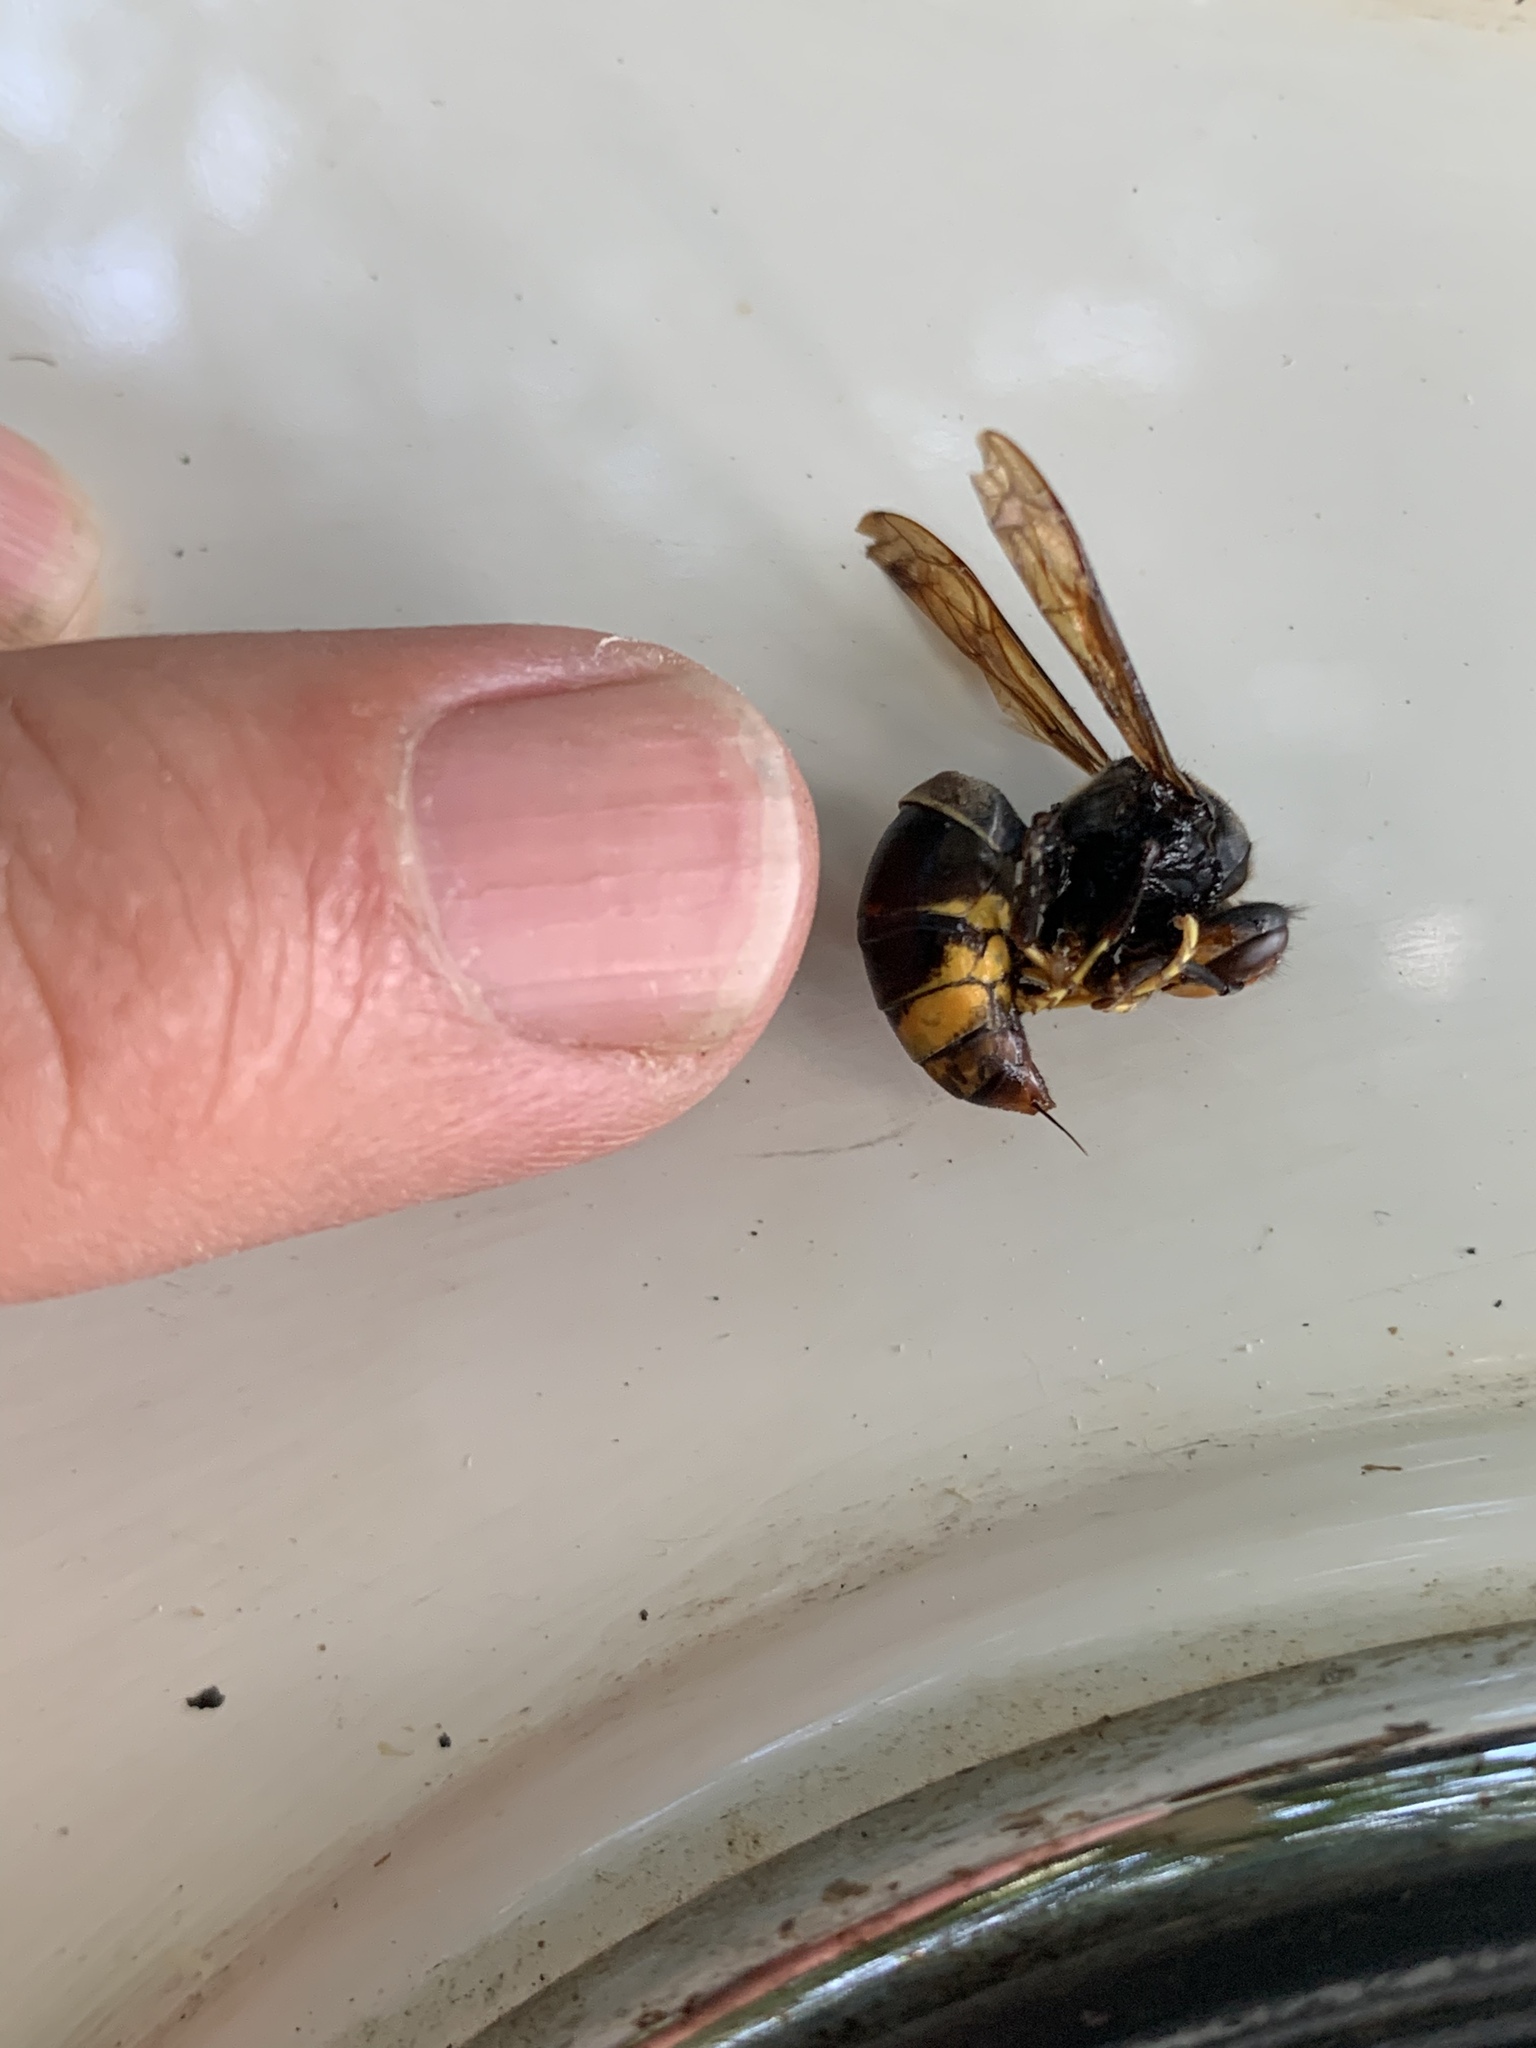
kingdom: Animalia
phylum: Arthropoda
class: Insecta
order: Hymenoptera
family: Vespidae
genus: Vespa
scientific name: Vespa velutina
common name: Asian hornet
